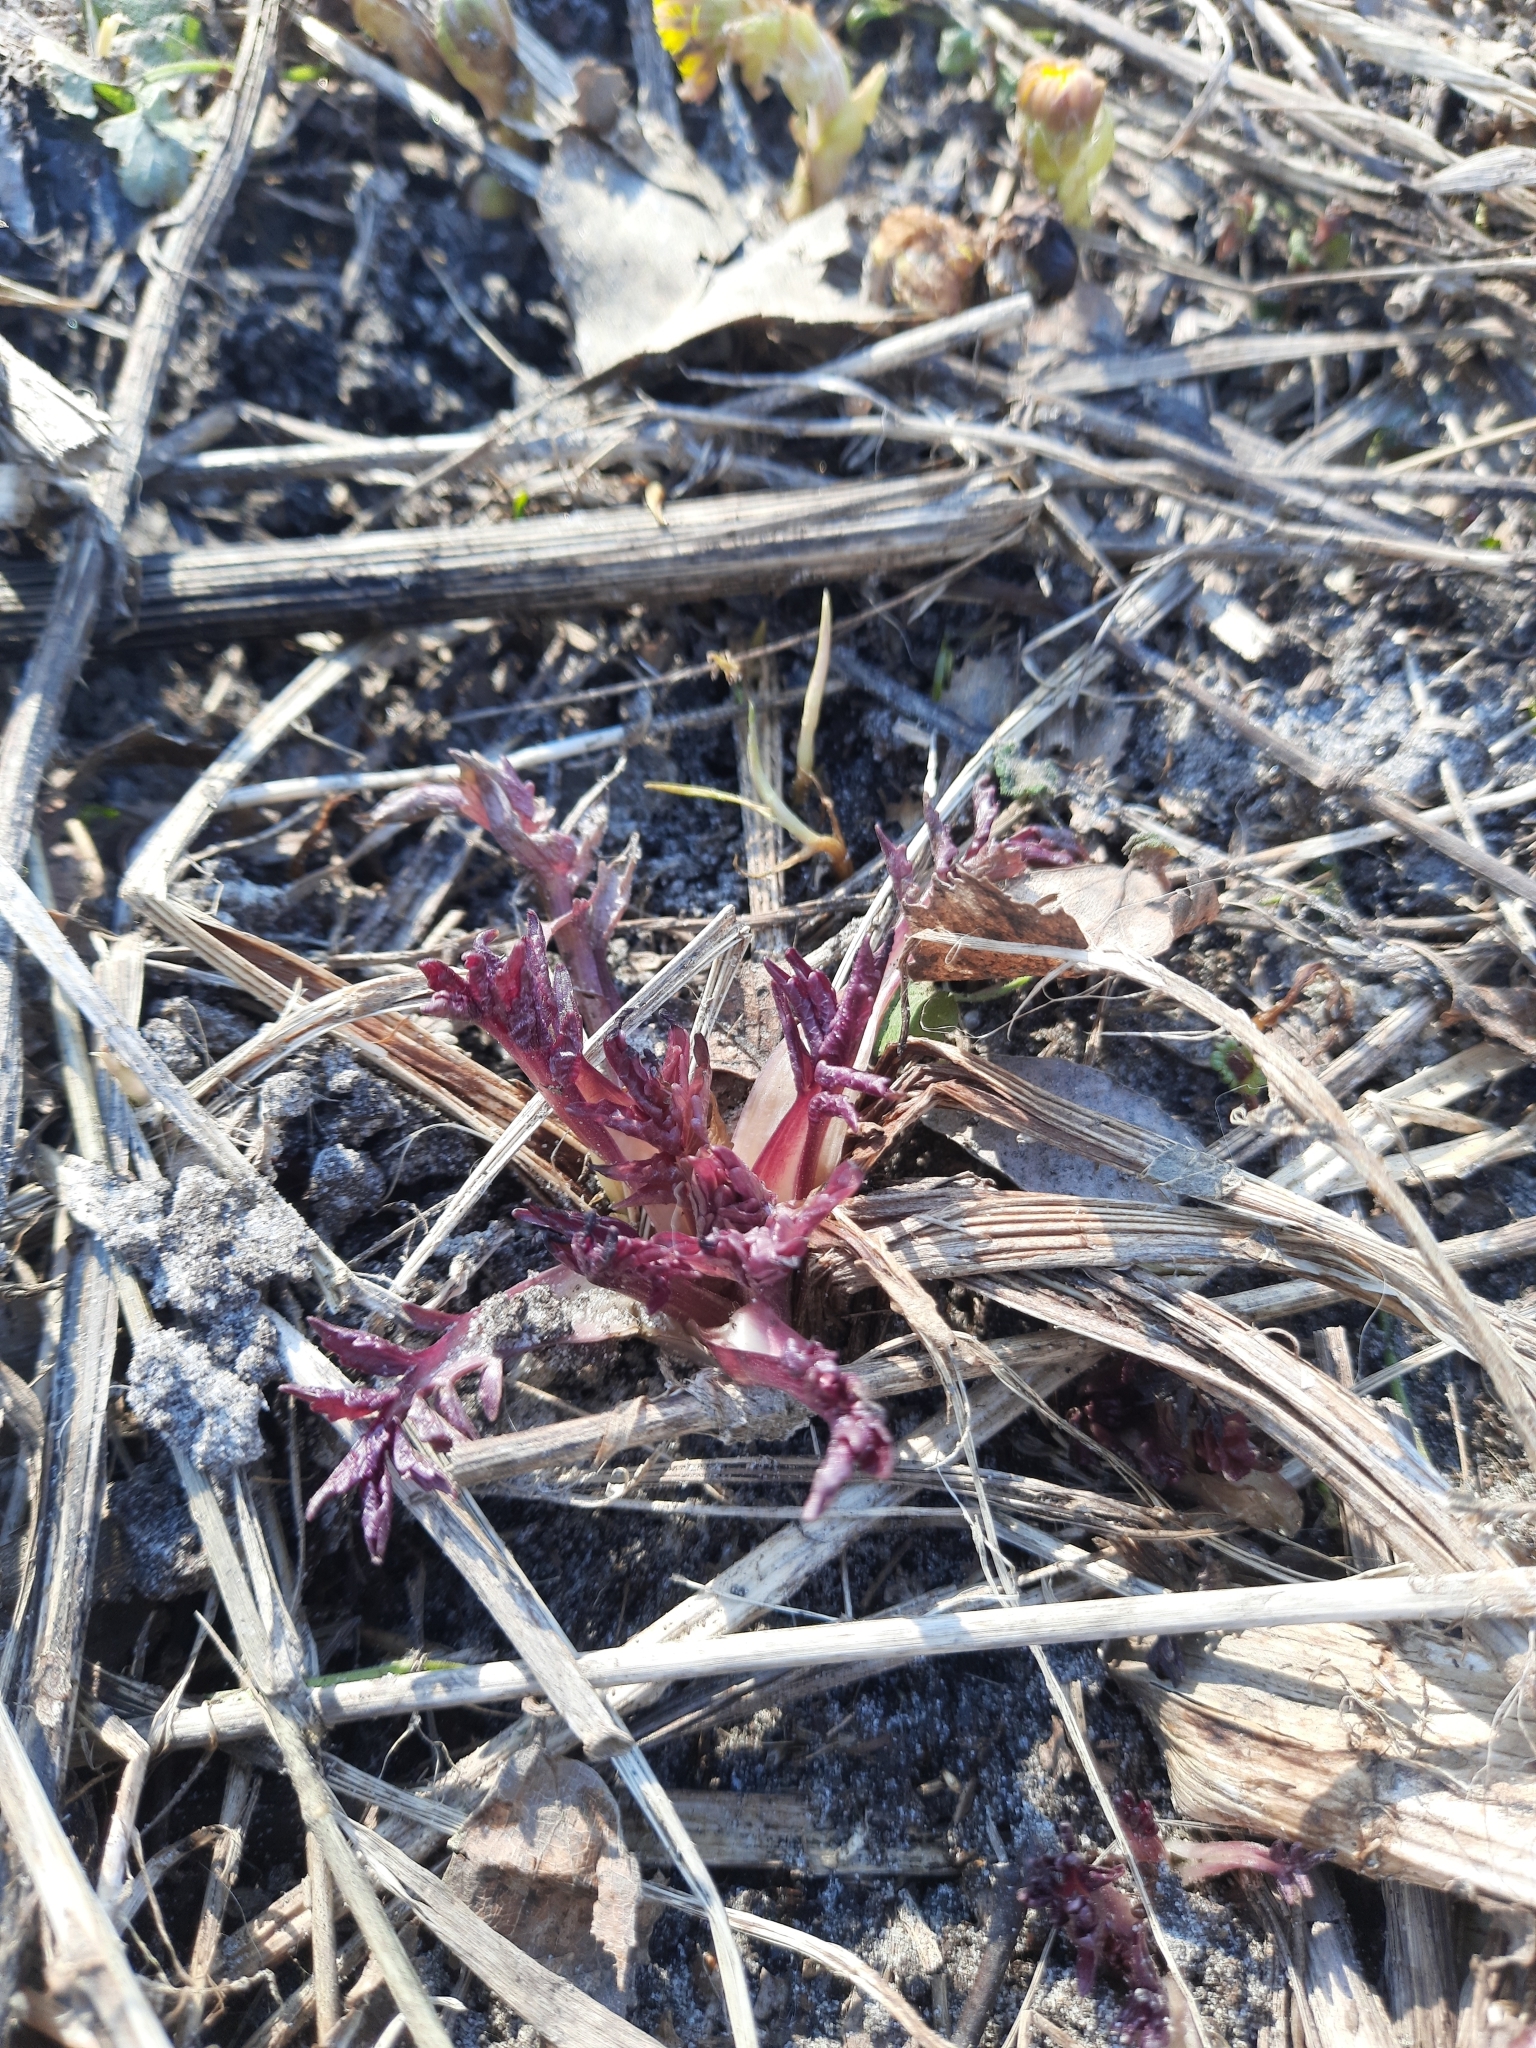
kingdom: Plantae
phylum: Tracheophyta
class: Magnoliopsida
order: Dipsacales
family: Caprifoliaceae
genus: Valeriana
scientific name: Valeriana wolgensis
